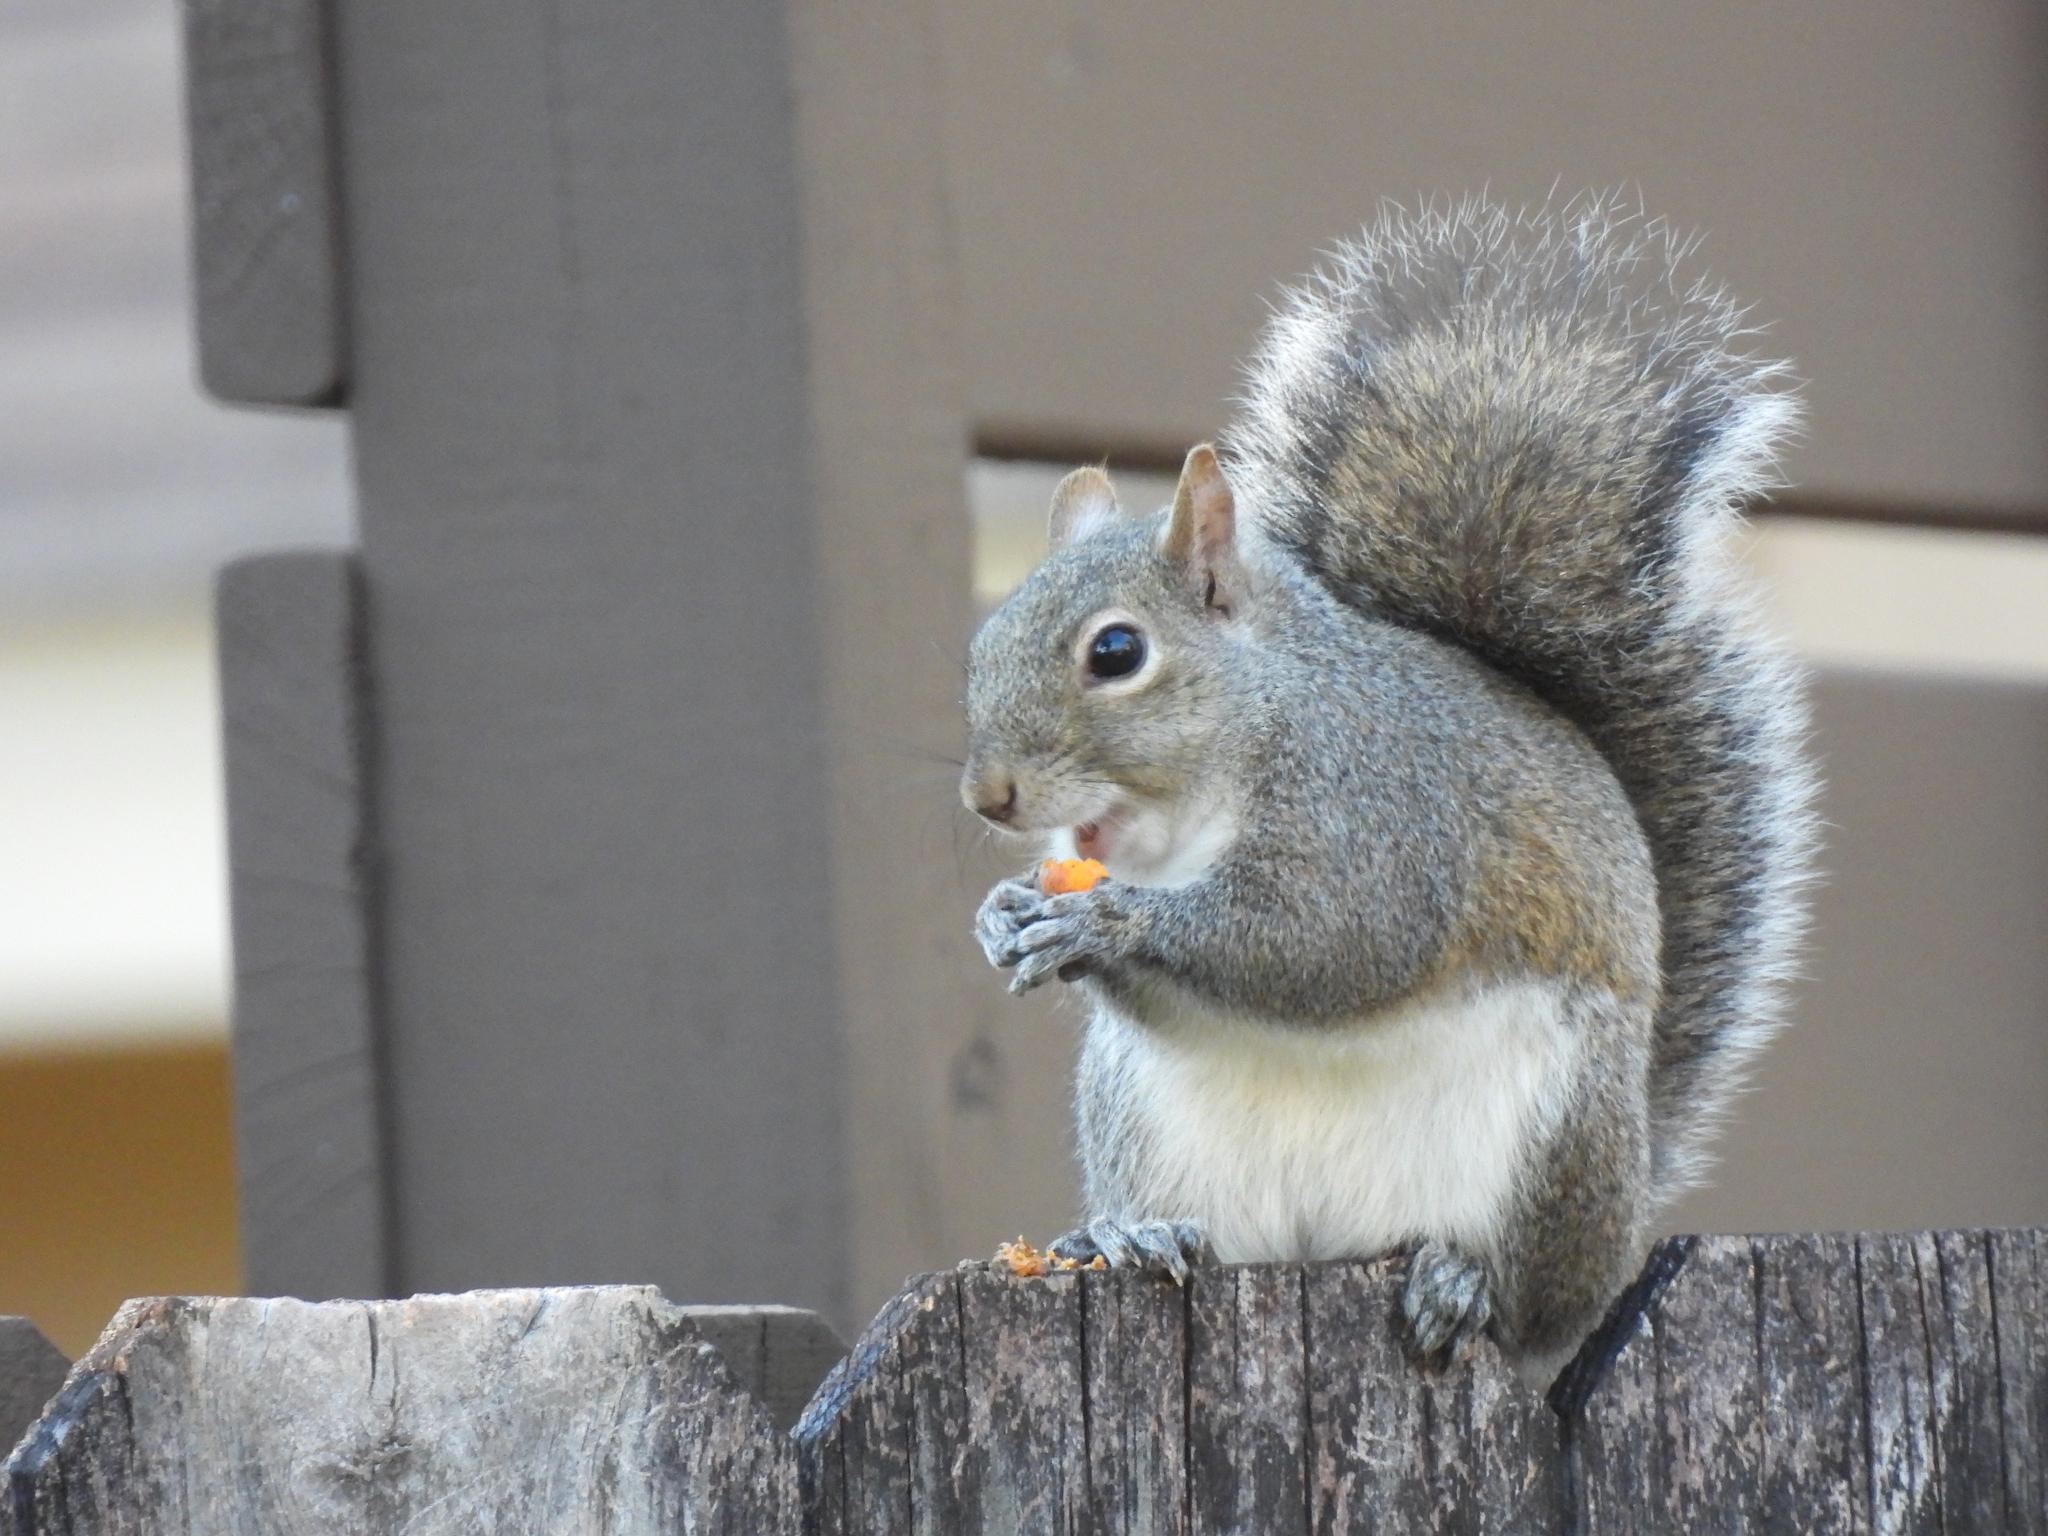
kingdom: Animalia
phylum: Chordata
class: Mammalia
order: Rodentia
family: Sciuridae
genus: Sciurus
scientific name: Sciurus carolinensis
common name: Eastern gray squirrel
